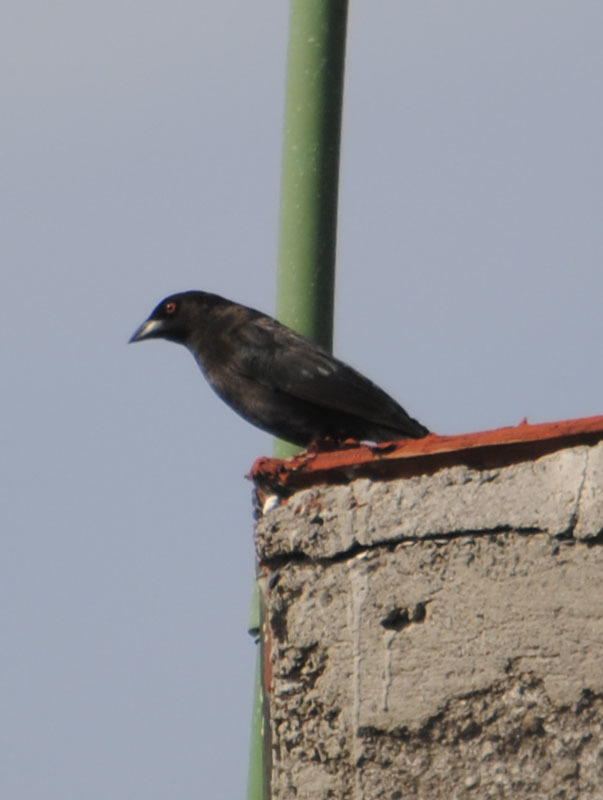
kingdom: Animalia
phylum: Chordata
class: Aves
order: Passeriformes
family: Icteridae
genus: Molothrus
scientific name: Molothrus aeneus
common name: Bronzed cowbird
